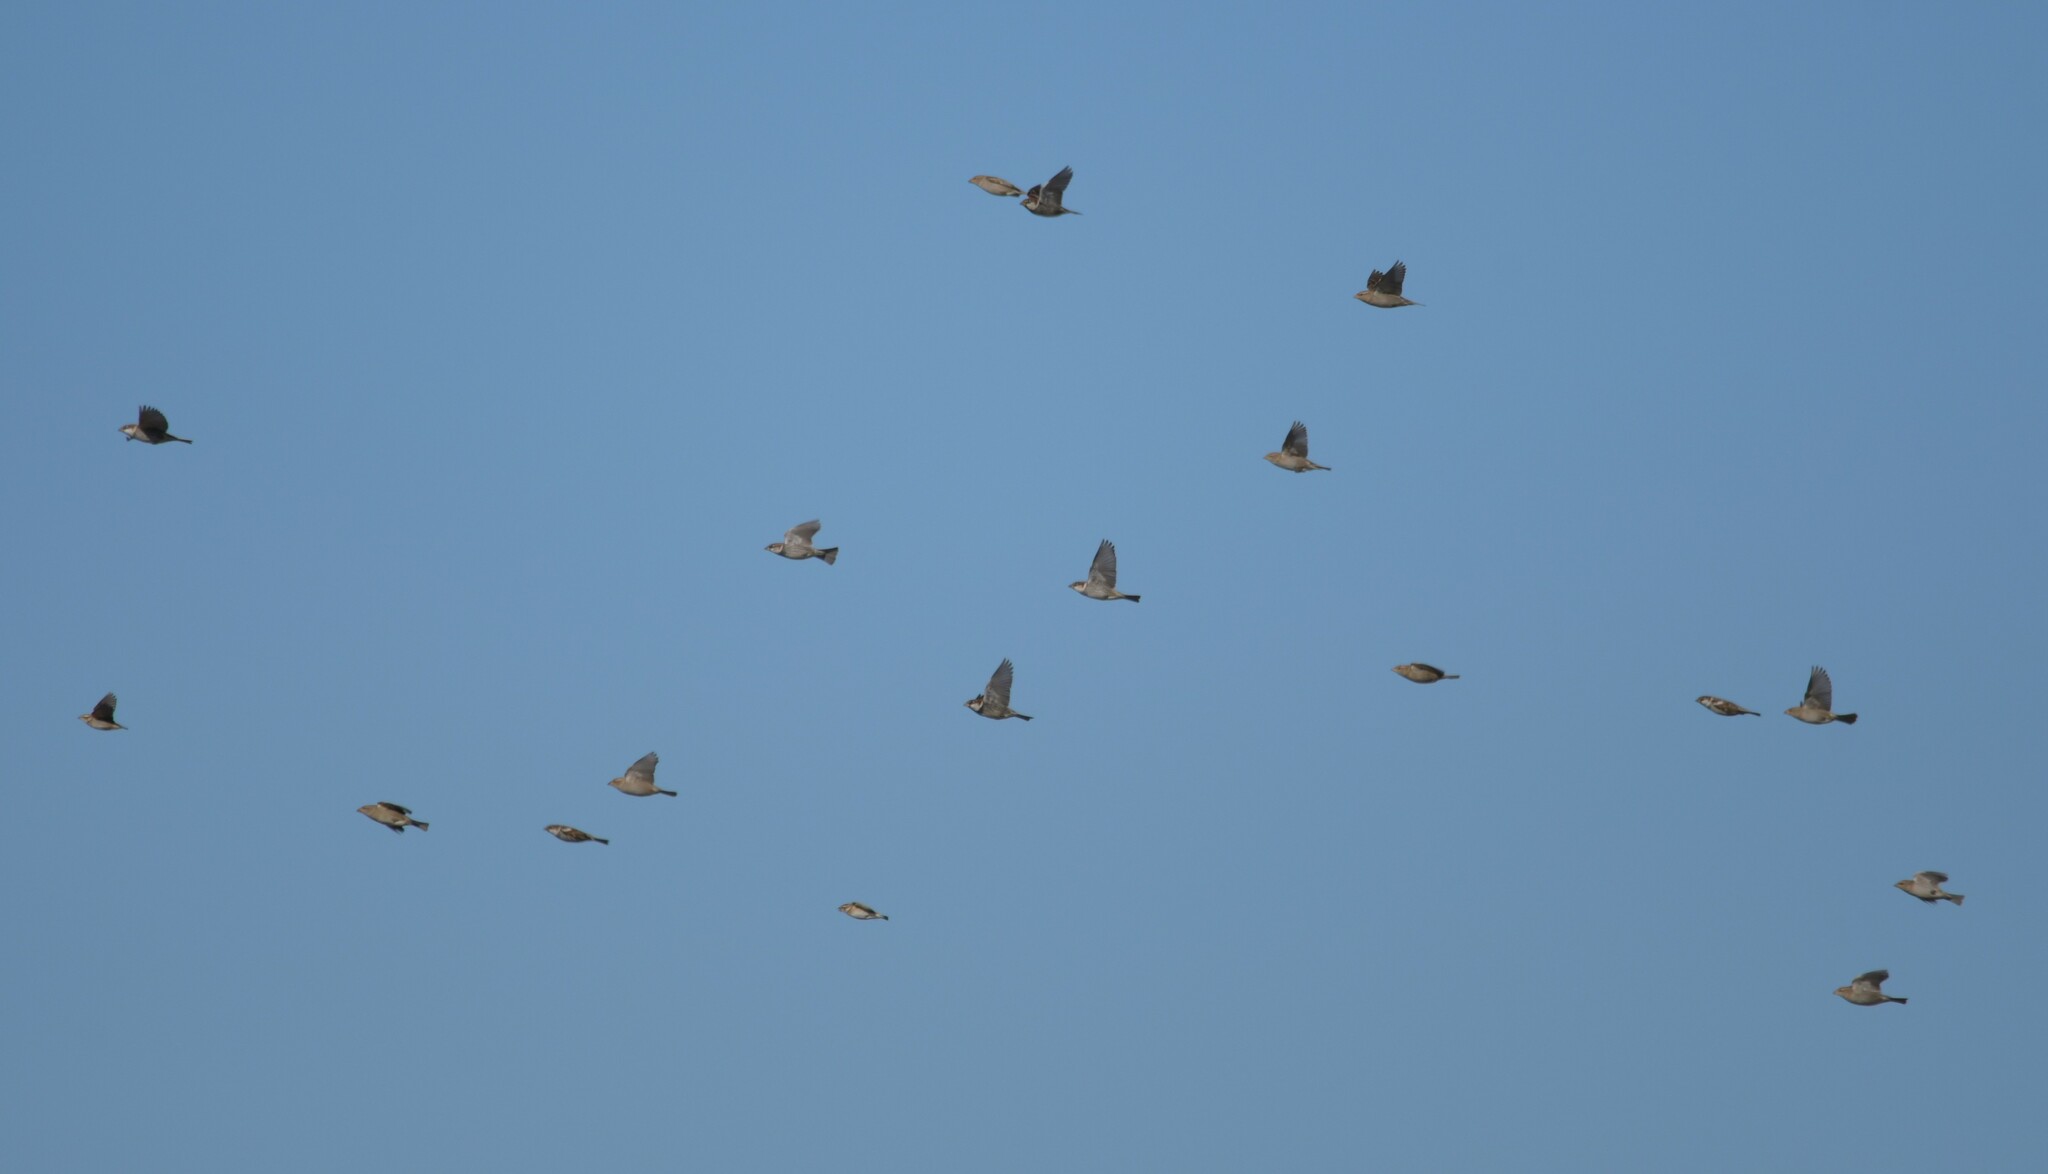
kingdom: Animalia
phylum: Chordata
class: Aves
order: Passeriformes
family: Passeridae
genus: Passer
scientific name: Passer hispaniolensis
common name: Spanish sparrow
